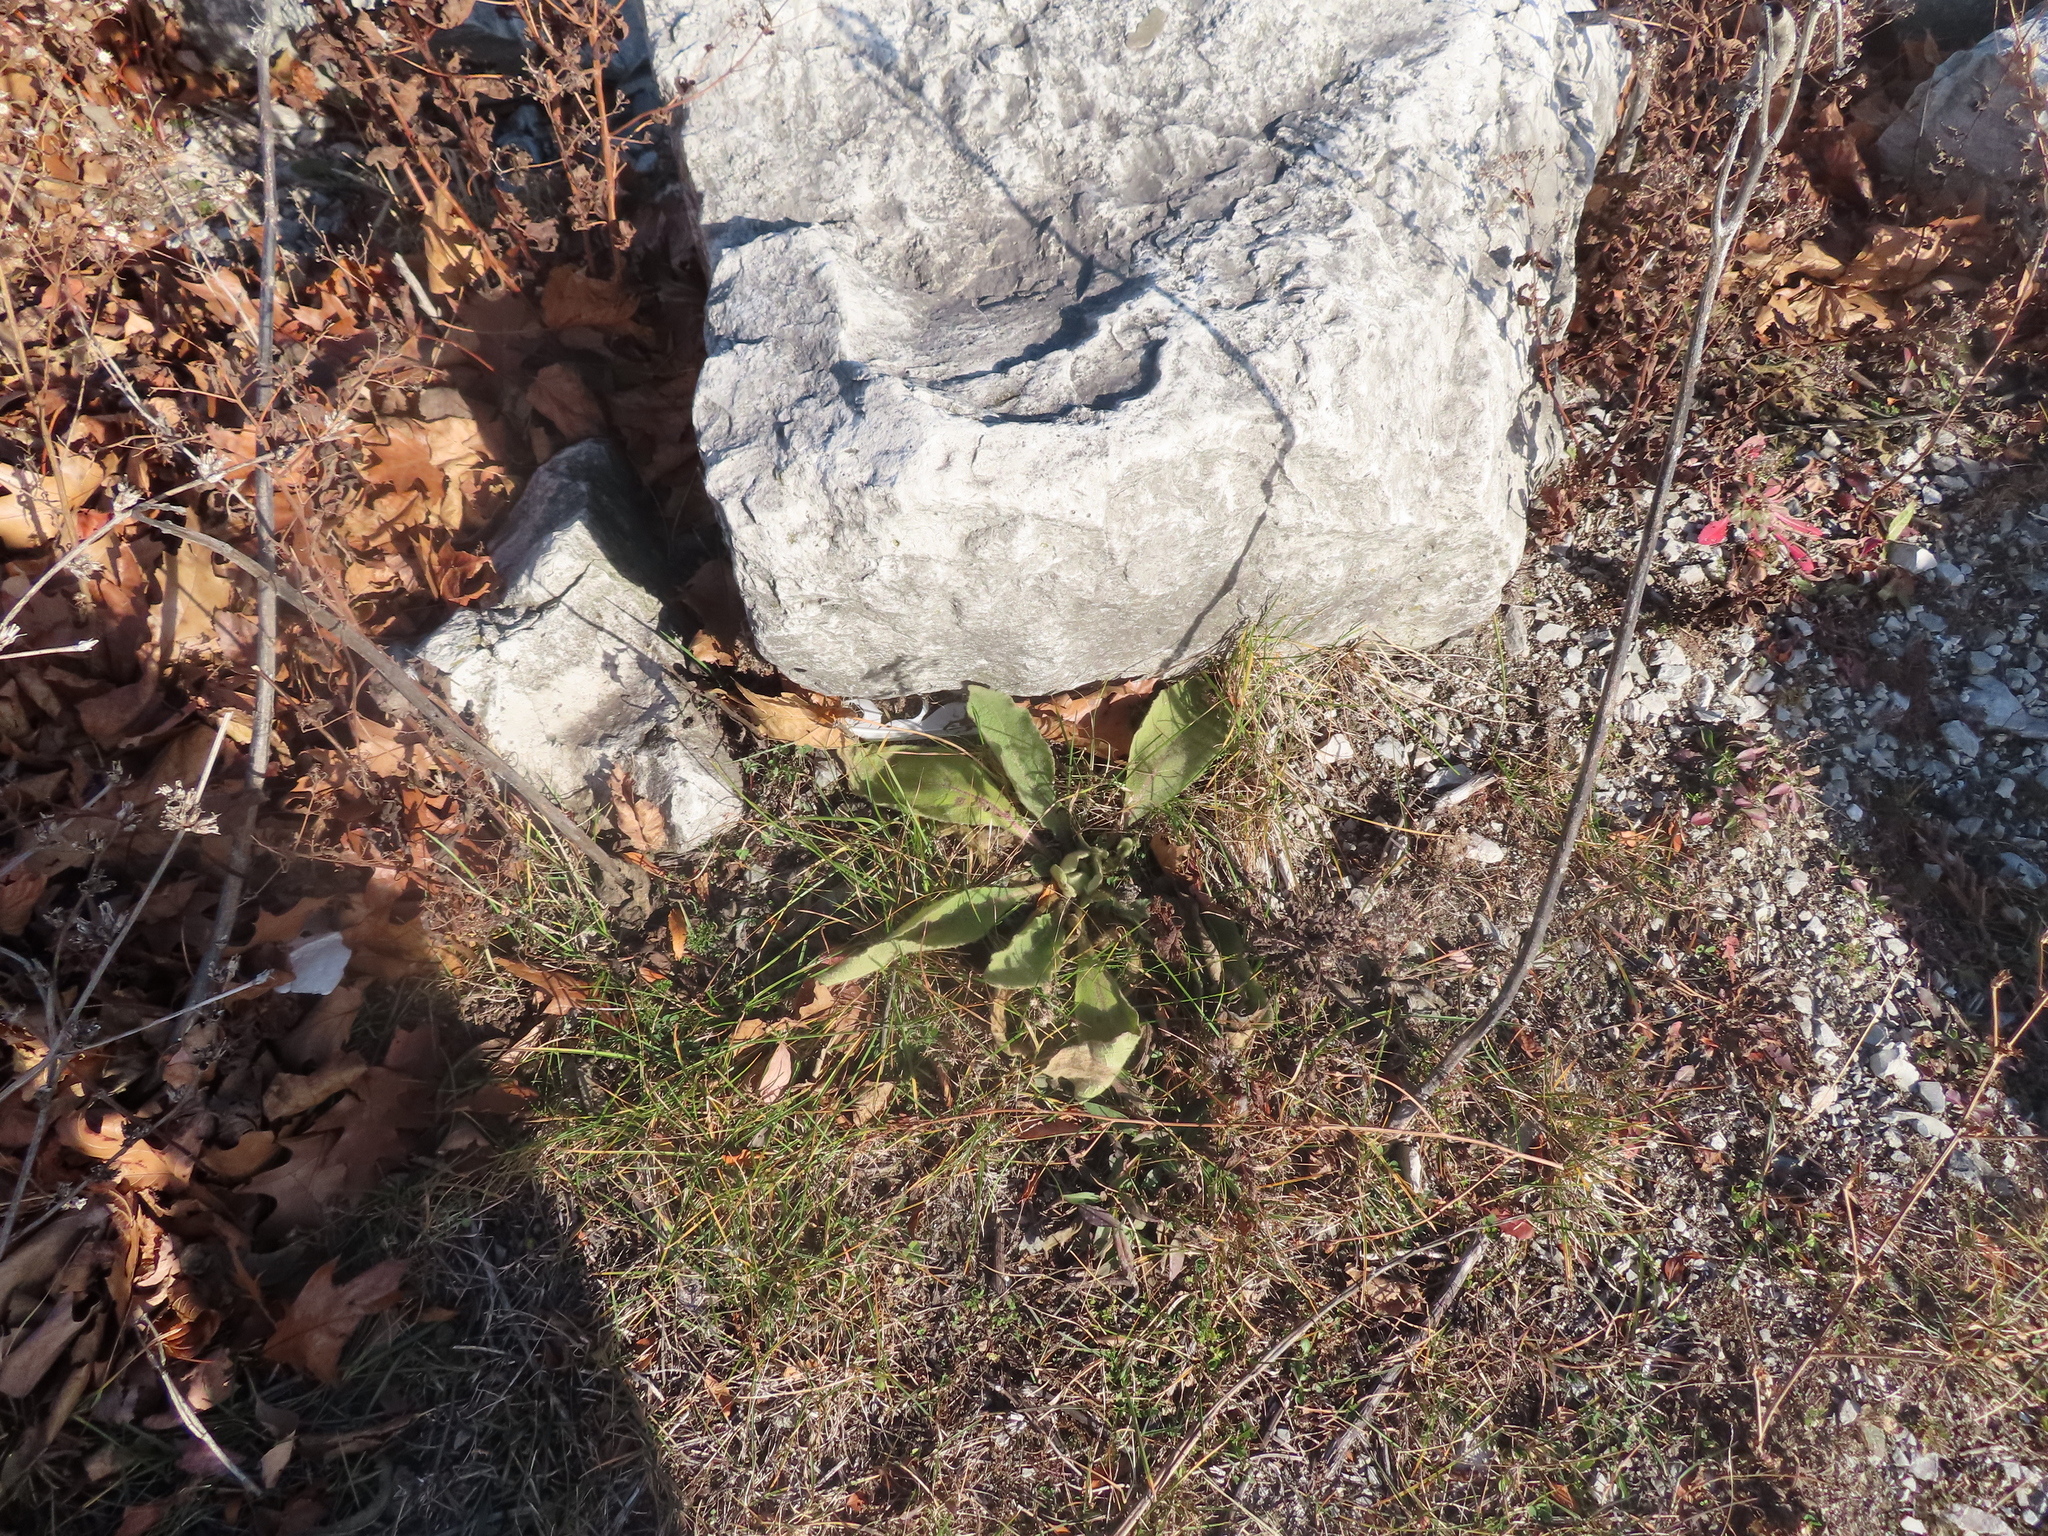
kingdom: Plantae
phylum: Tracheophyta
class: Magnoliopsida
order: Lamiales
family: Scrophulariaceae
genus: Verbascum
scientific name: Verbascum thapsus
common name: Common mullein
